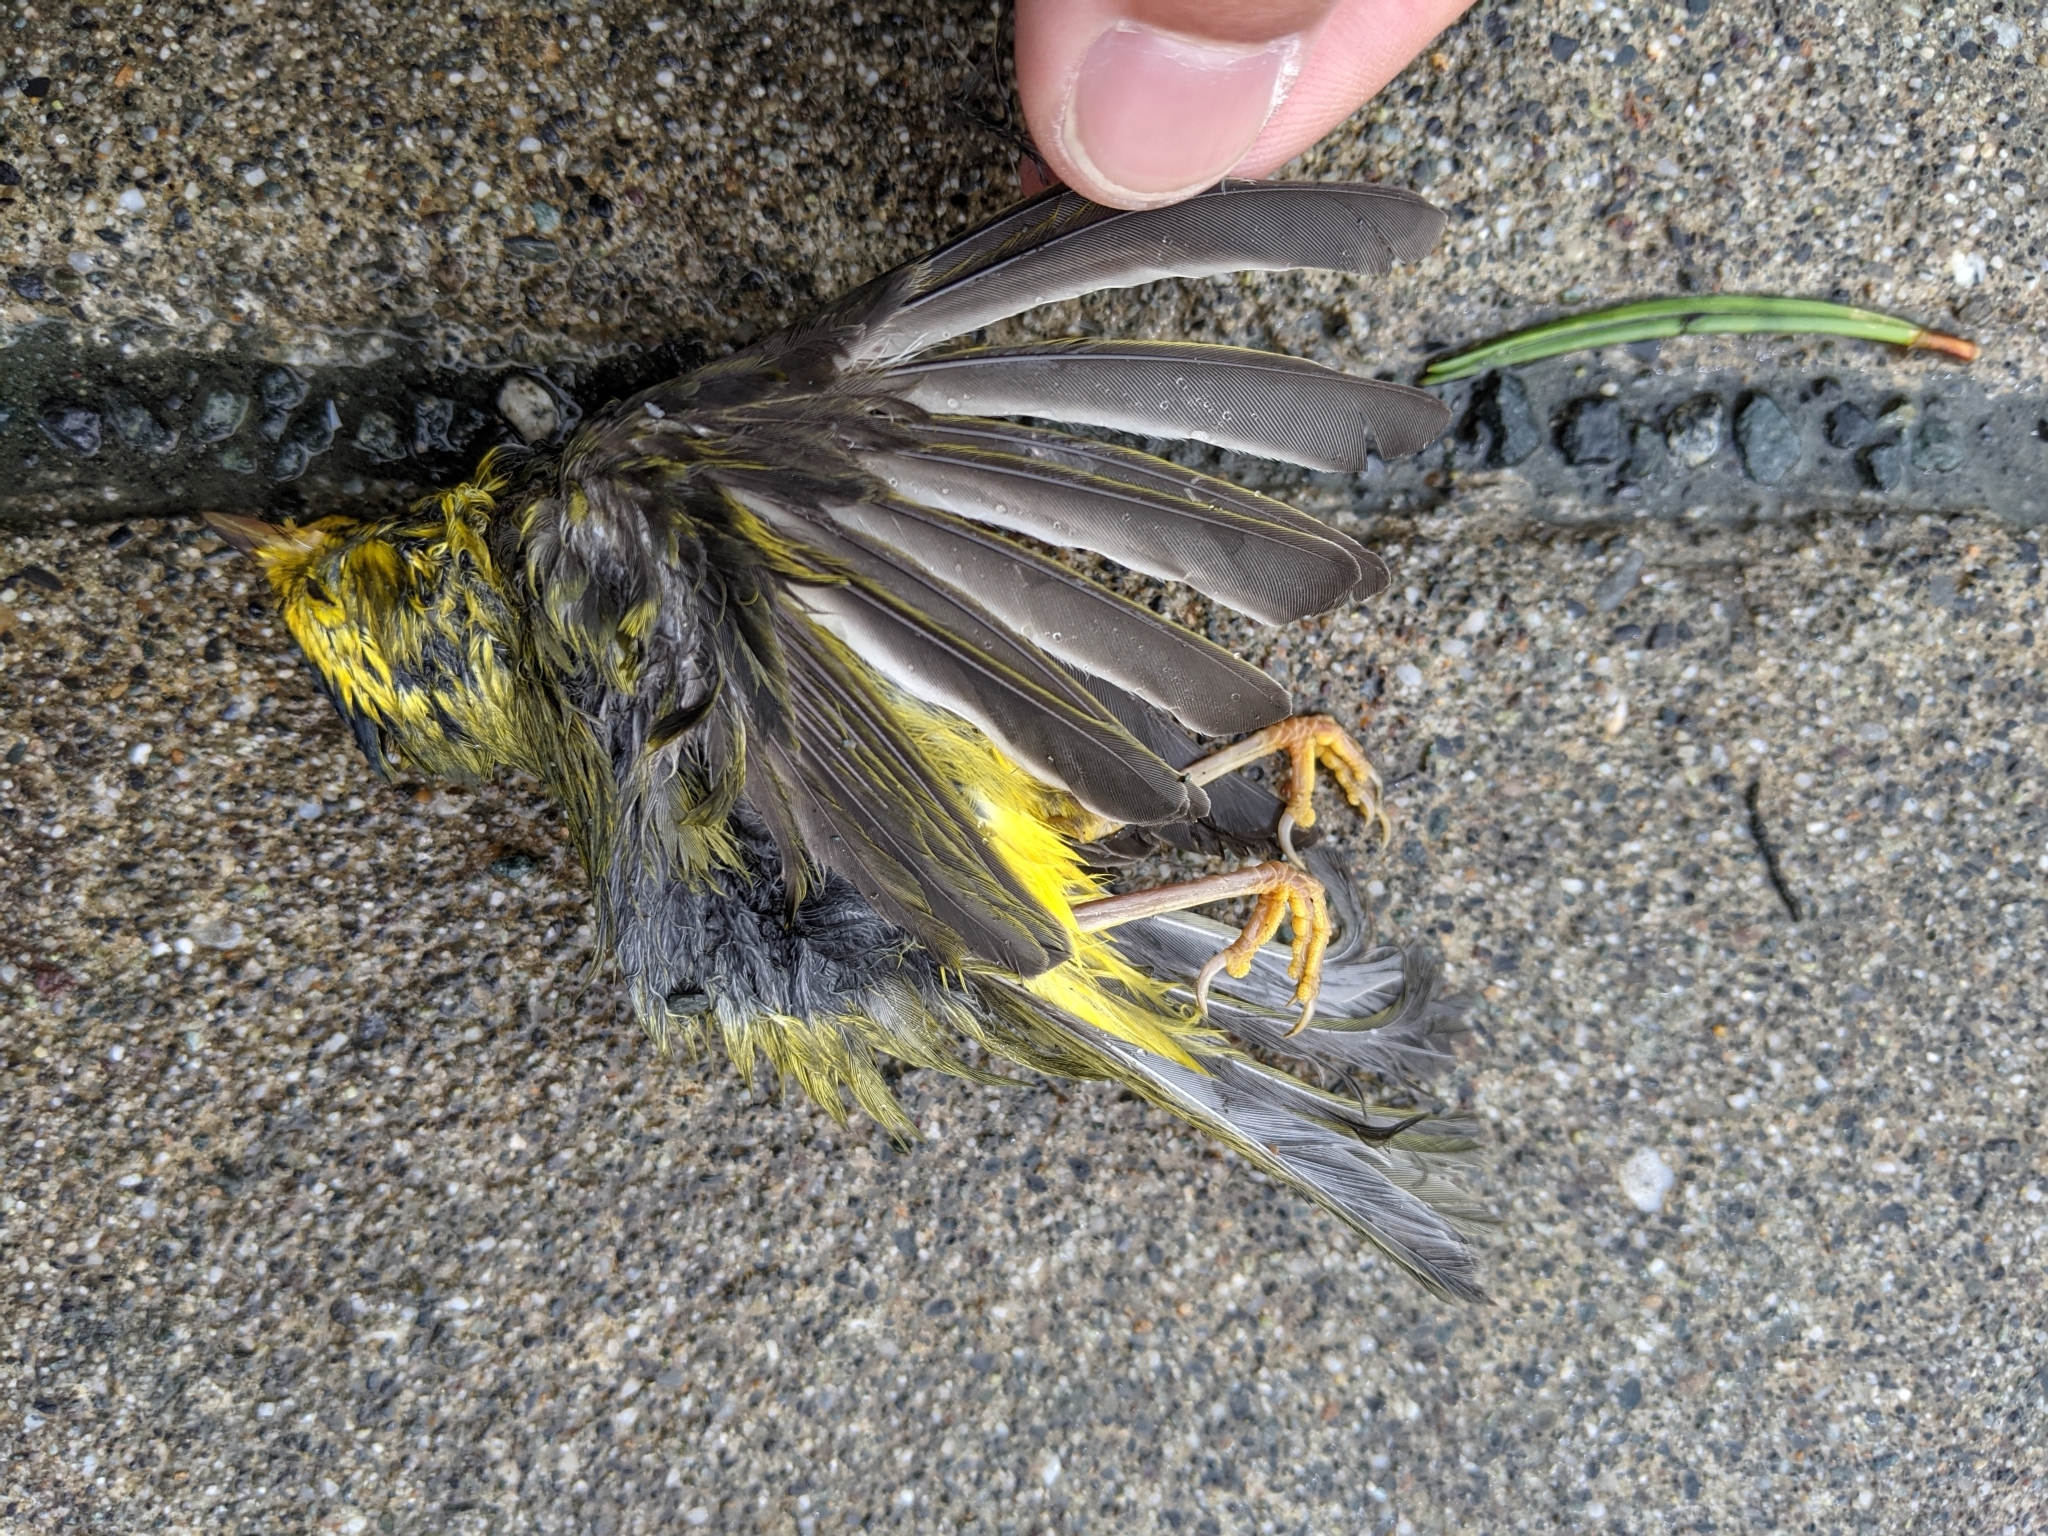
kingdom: Animalia
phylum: Chordata
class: Aves
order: Passeriformes
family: Parulidae
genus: Cardellina
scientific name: Cardellina pusilla
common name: Wilson's warbler
